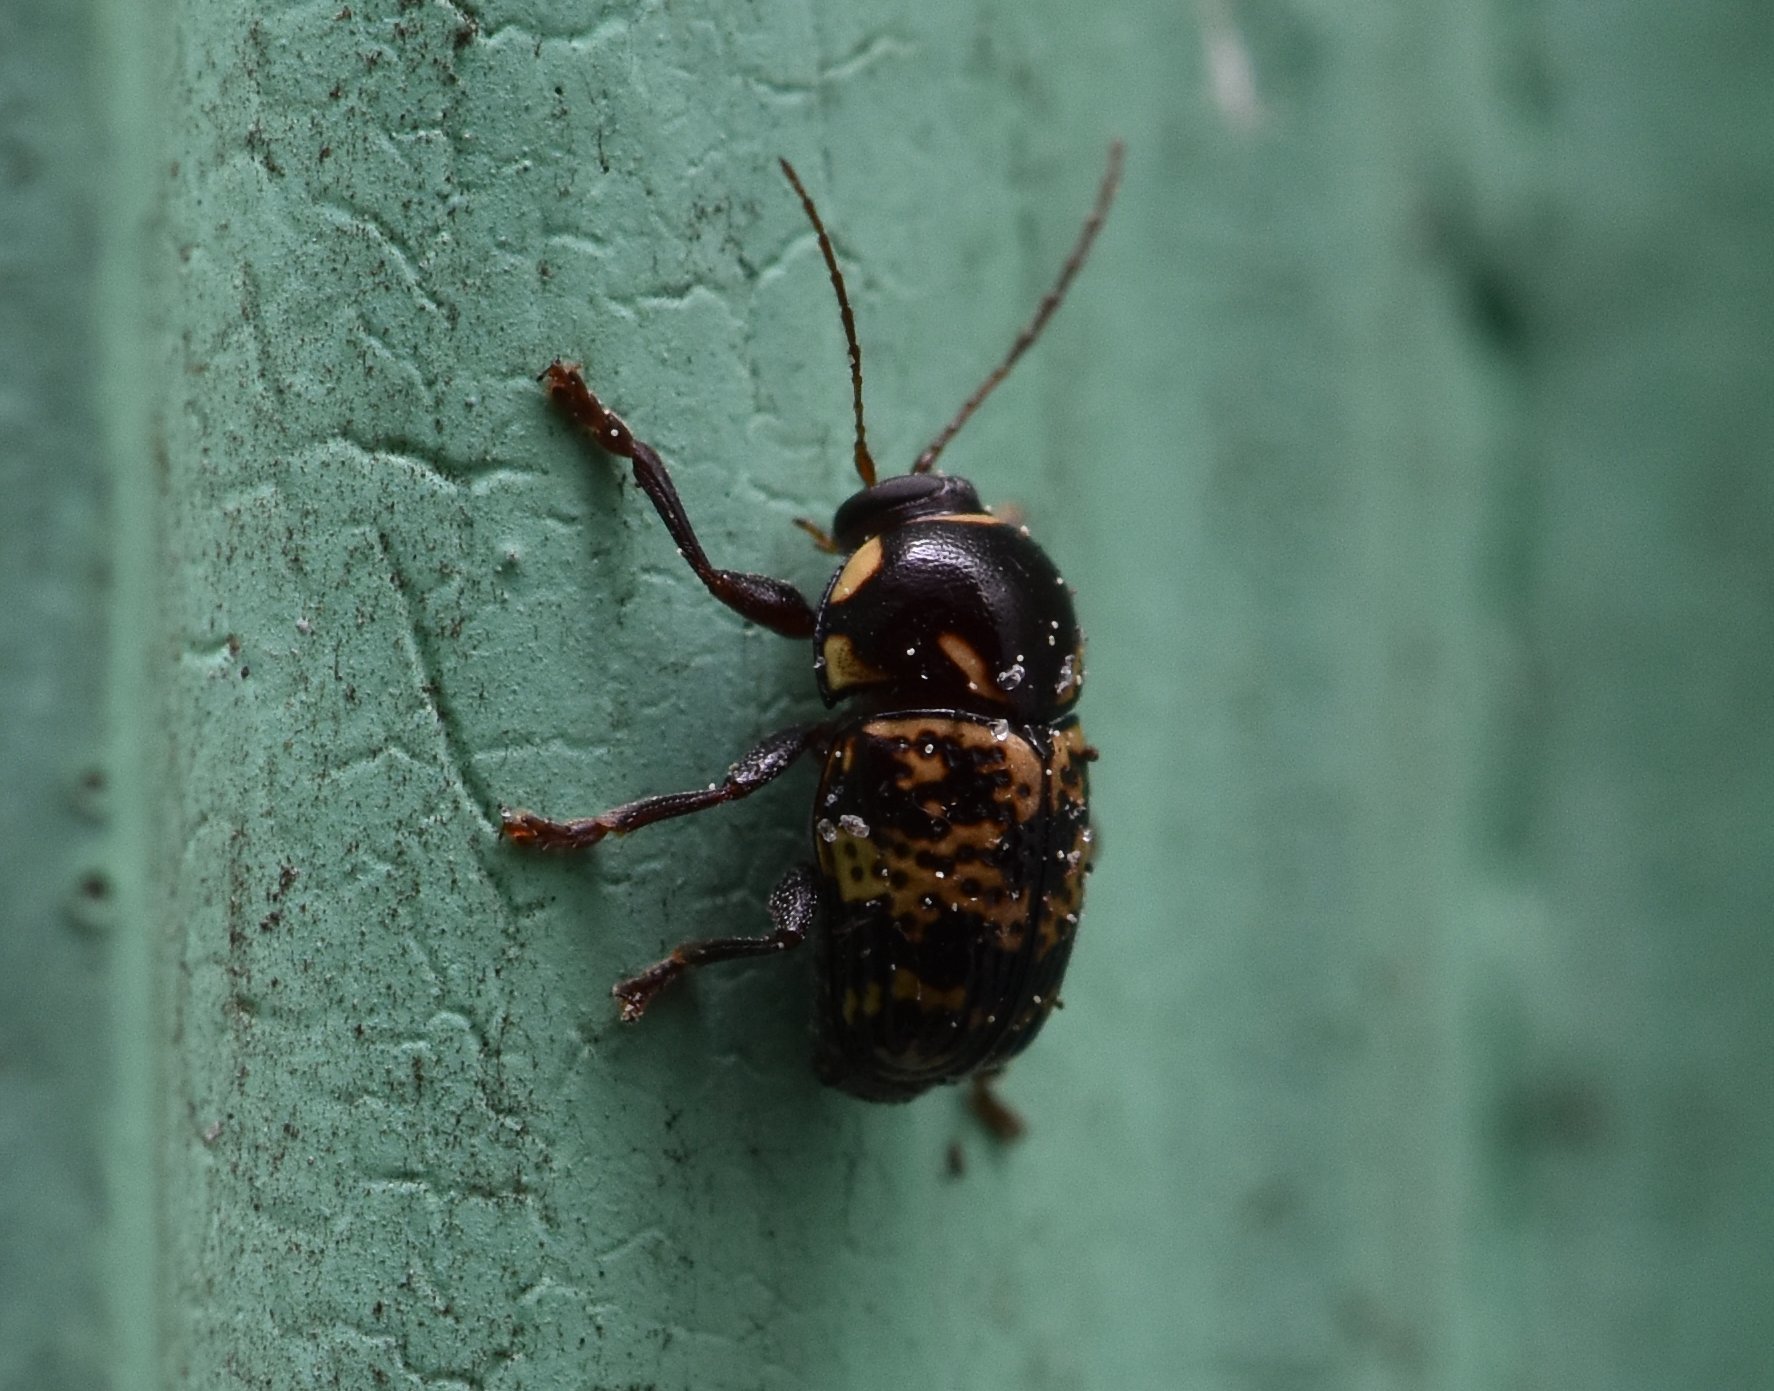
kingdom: Animalia
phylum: Arthropoda
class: Insecta
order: Coleoptera
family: Chrysomelidae
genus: Cryptocephalus
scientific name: Cryptocephalus irroratus
